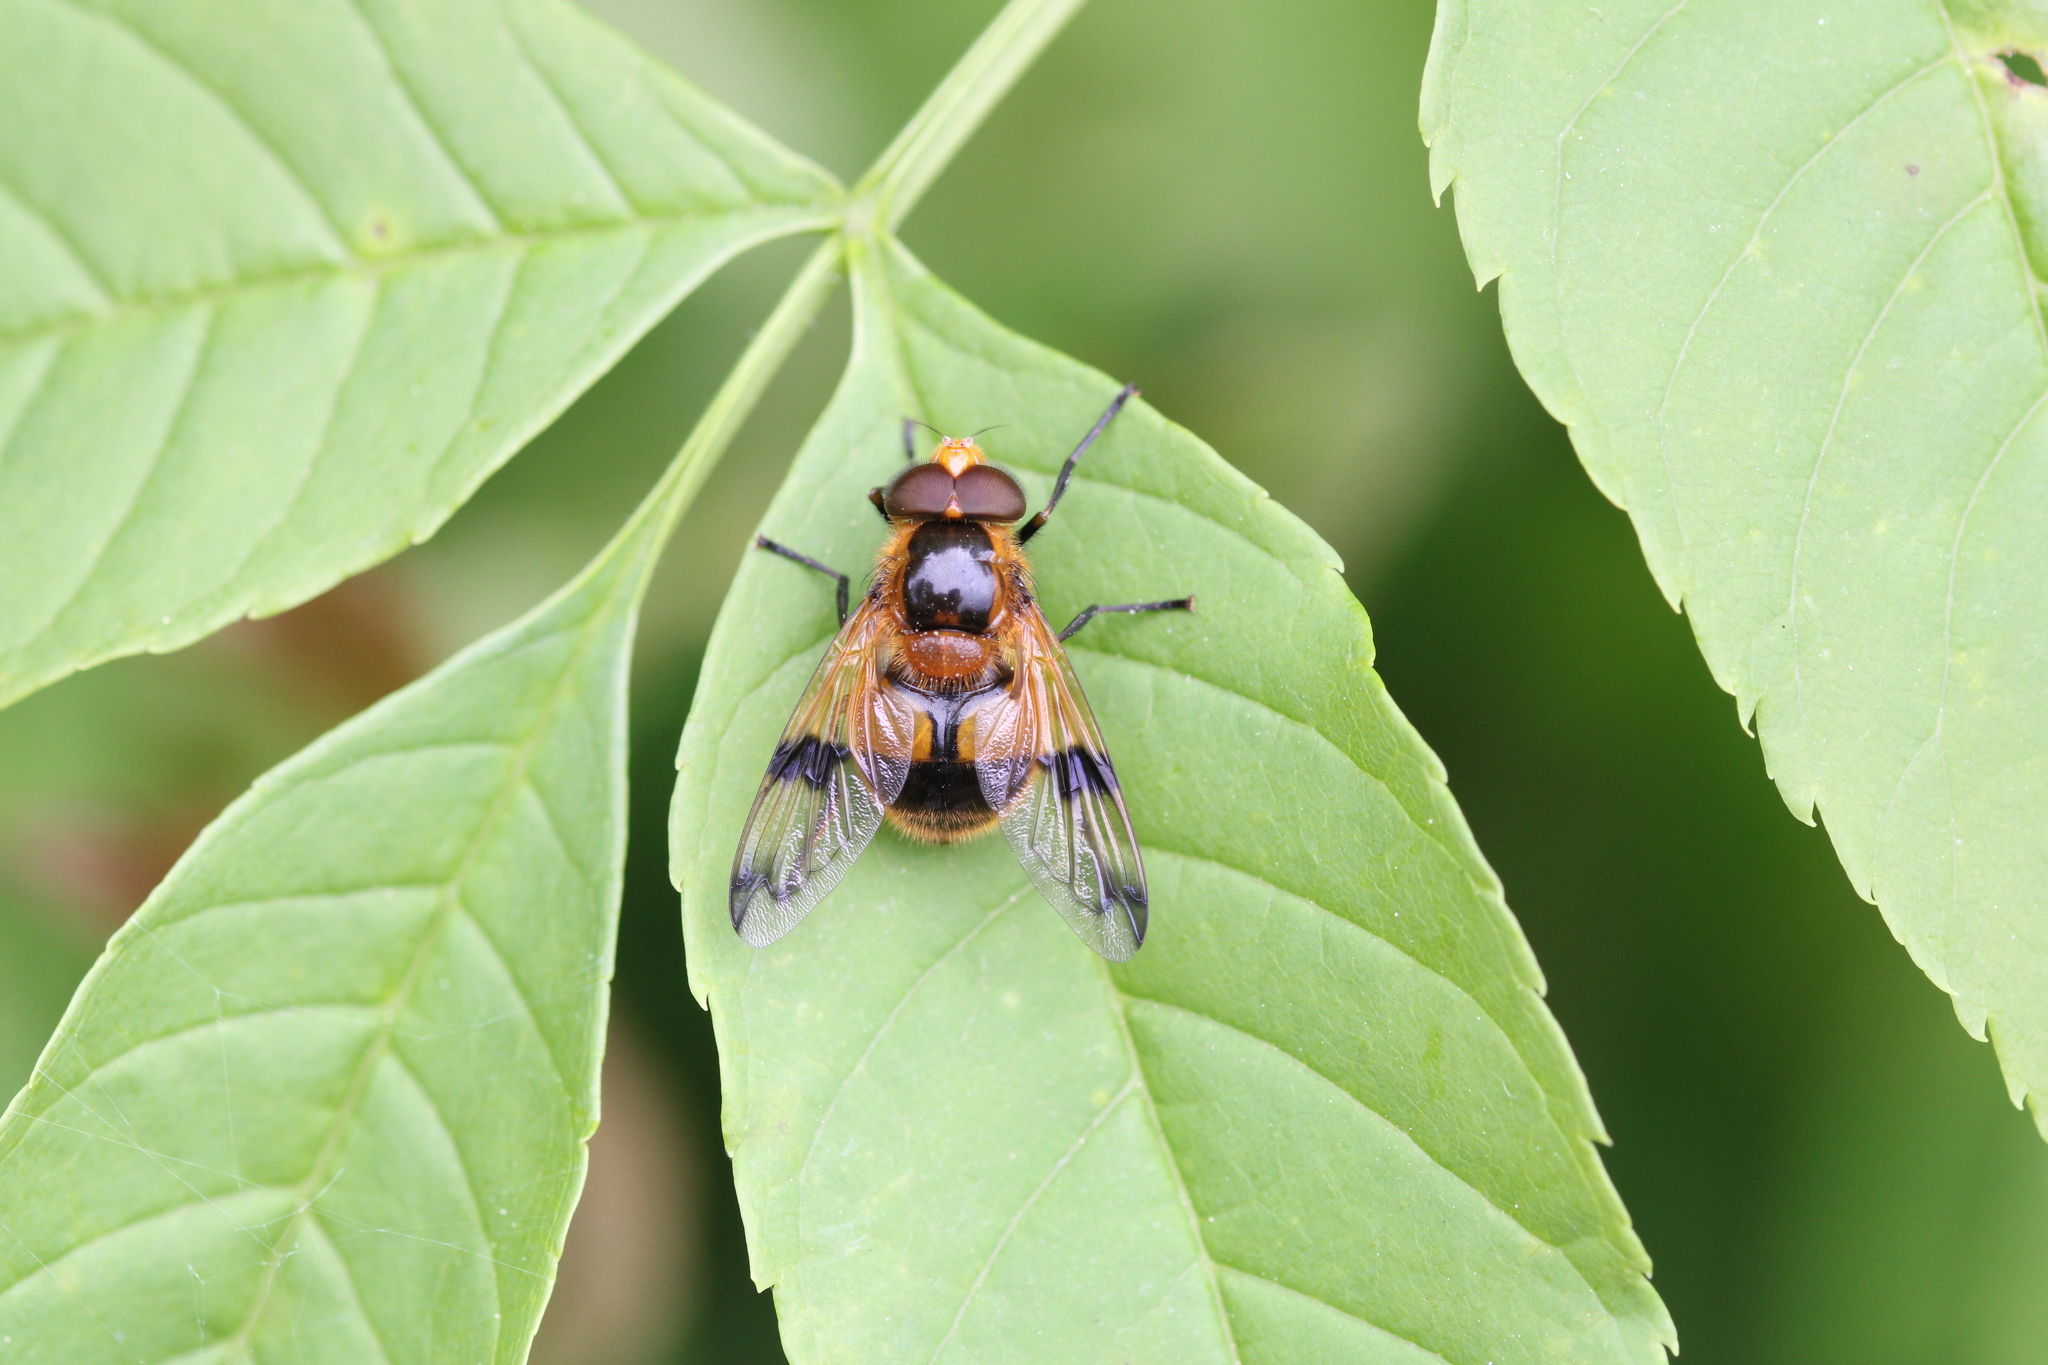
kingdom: Animalia
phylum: Arthropoda
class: Insecta
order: Diptera
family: Syrphidae
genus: Volucella
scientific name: Volucella inflata
